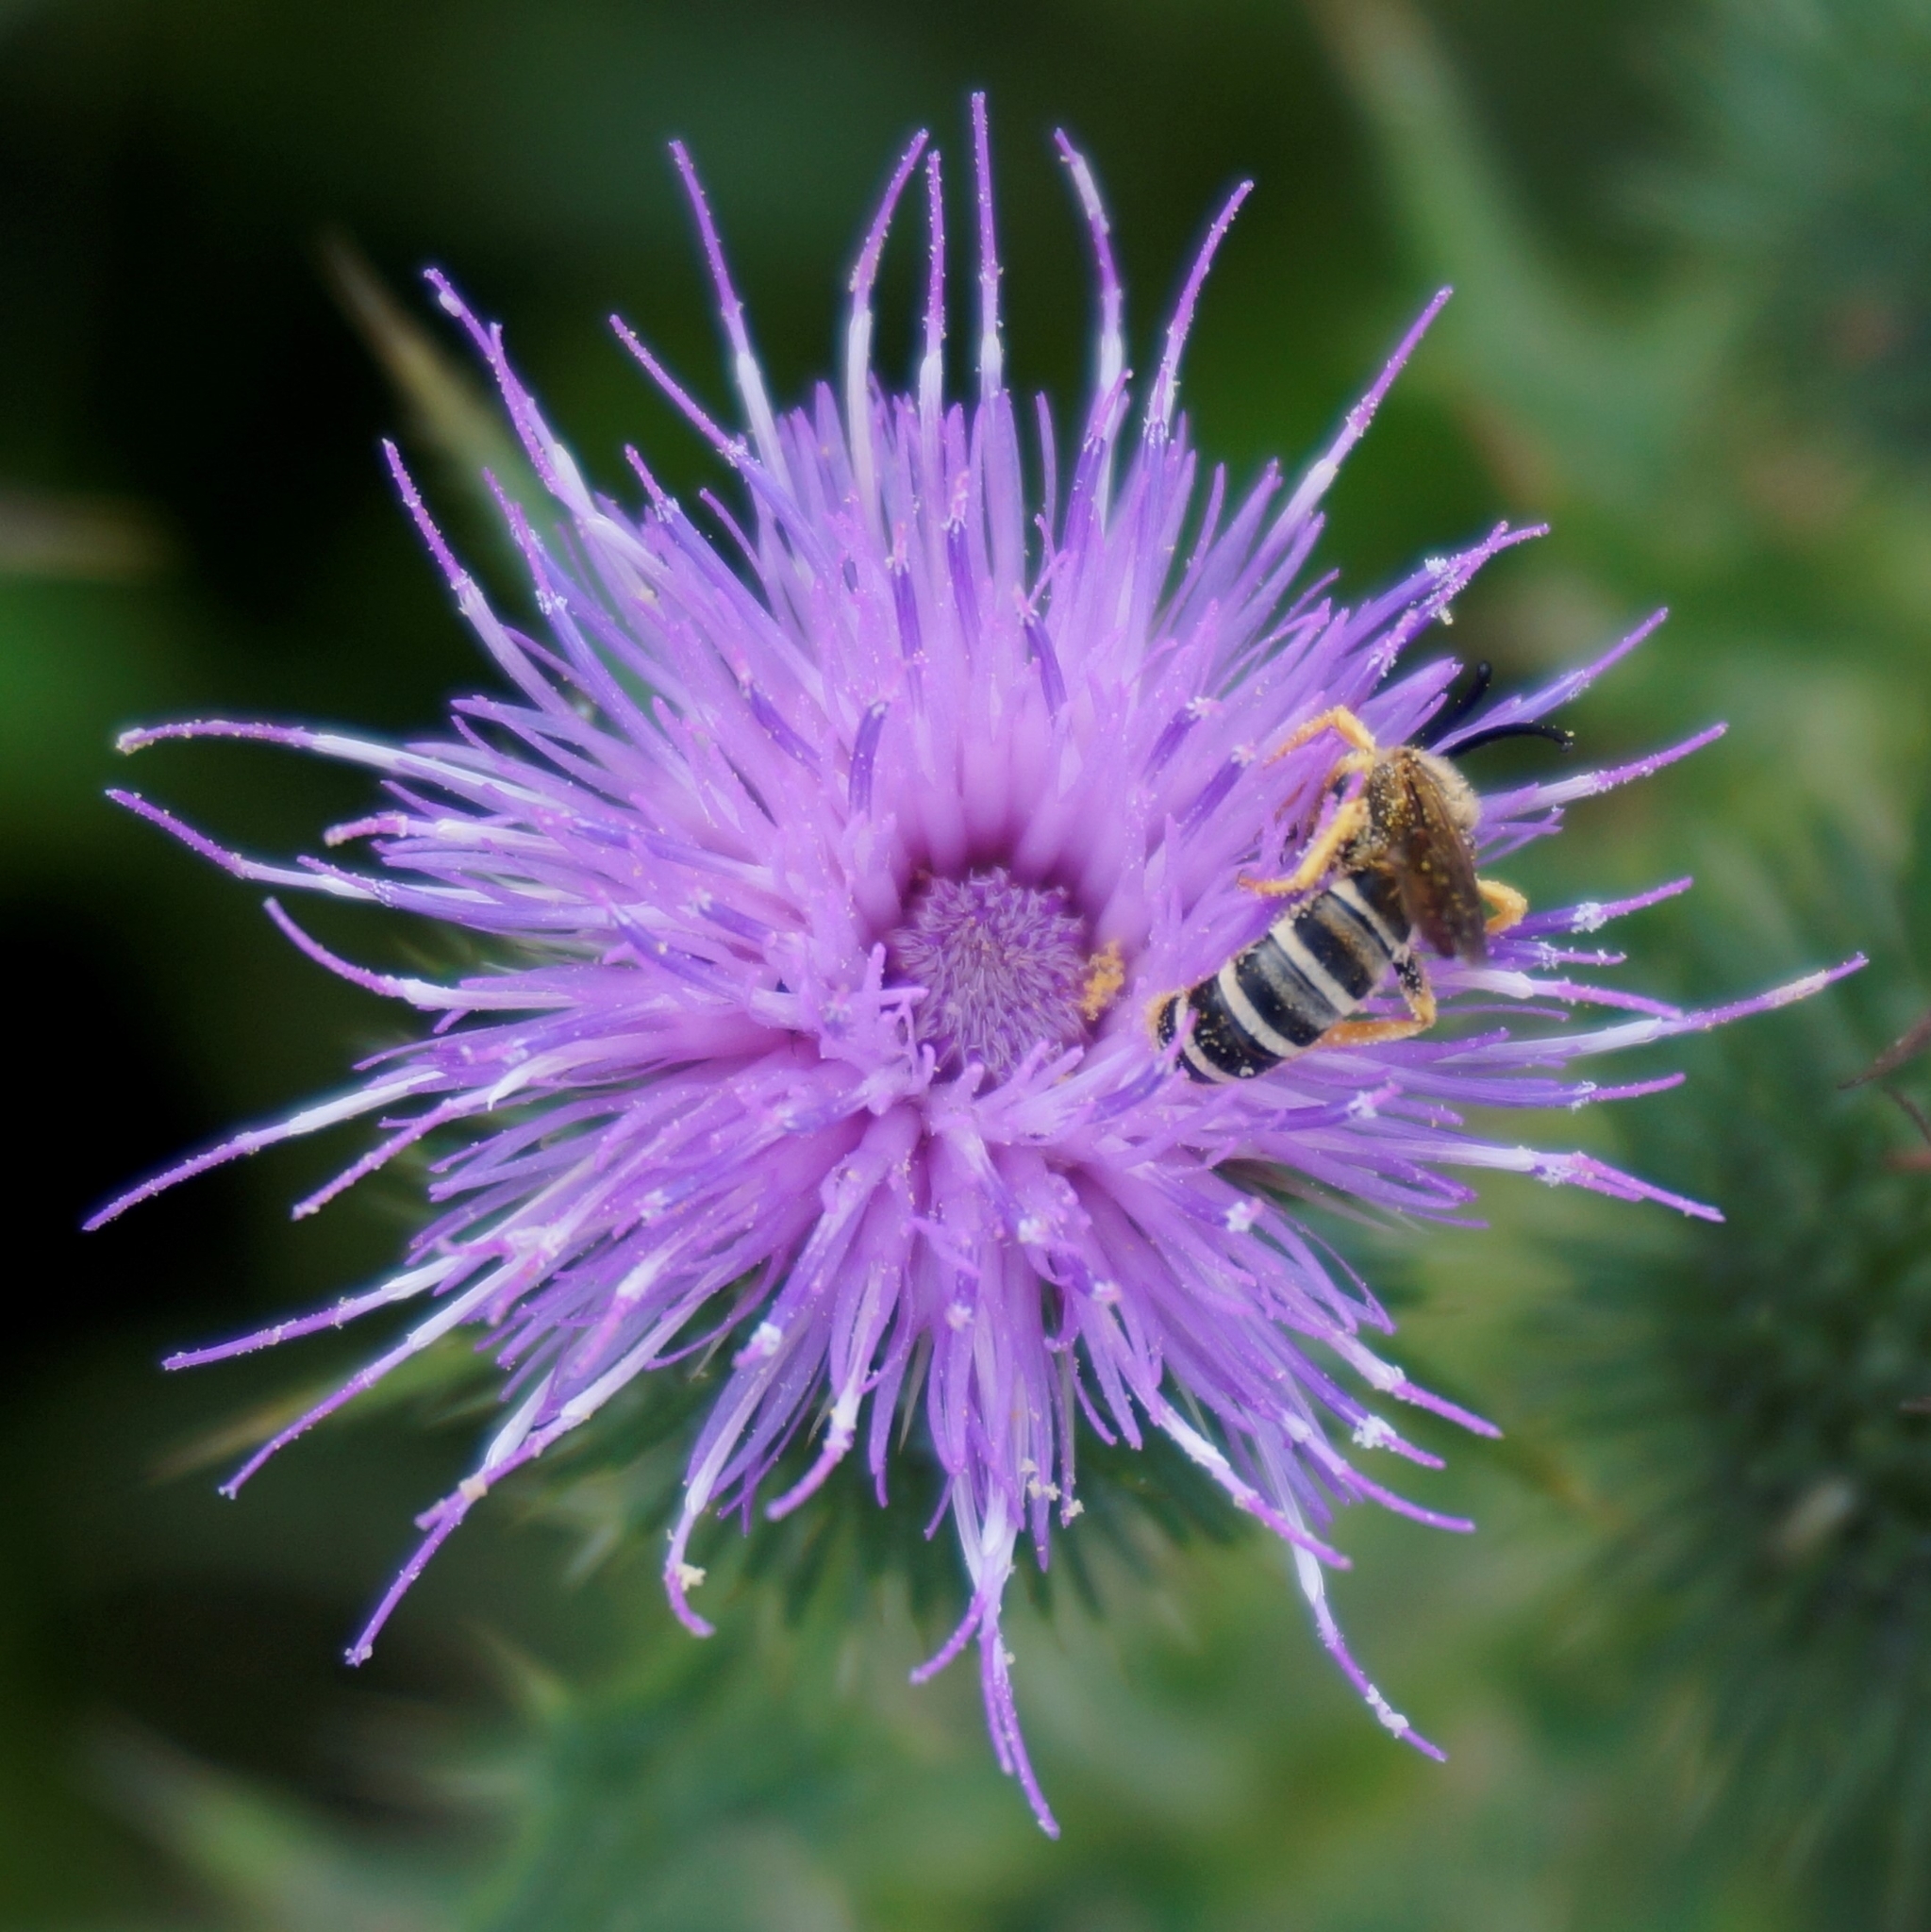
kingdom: Animalia
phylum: Arthropoda
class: Insecta
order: Hymenoptera
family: Halictidae
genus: Halictus
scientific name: Halictus scabiosae
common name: Great banded furrow bee
